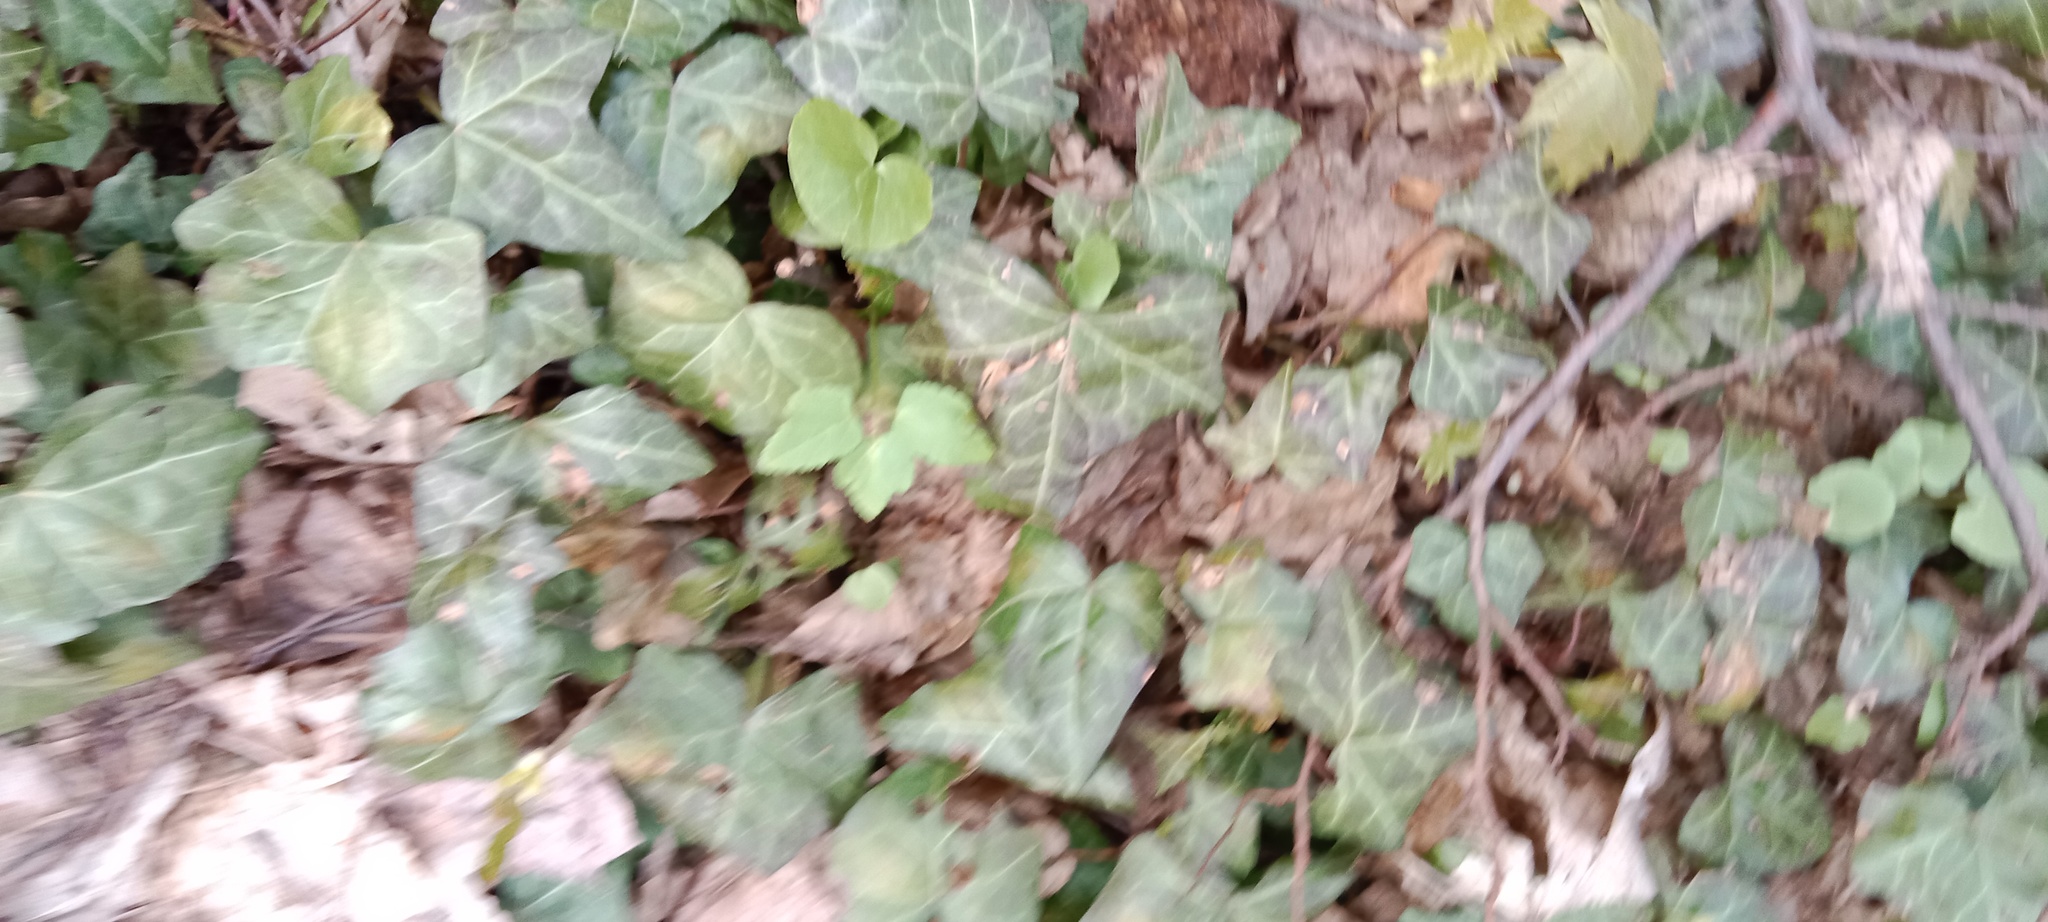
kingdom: Plantae
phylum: Tracheophyta
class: Magnoliopsida
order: Apiales
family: Araliaceae
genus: Hedera
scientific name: Hedera helix
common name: Ivy
